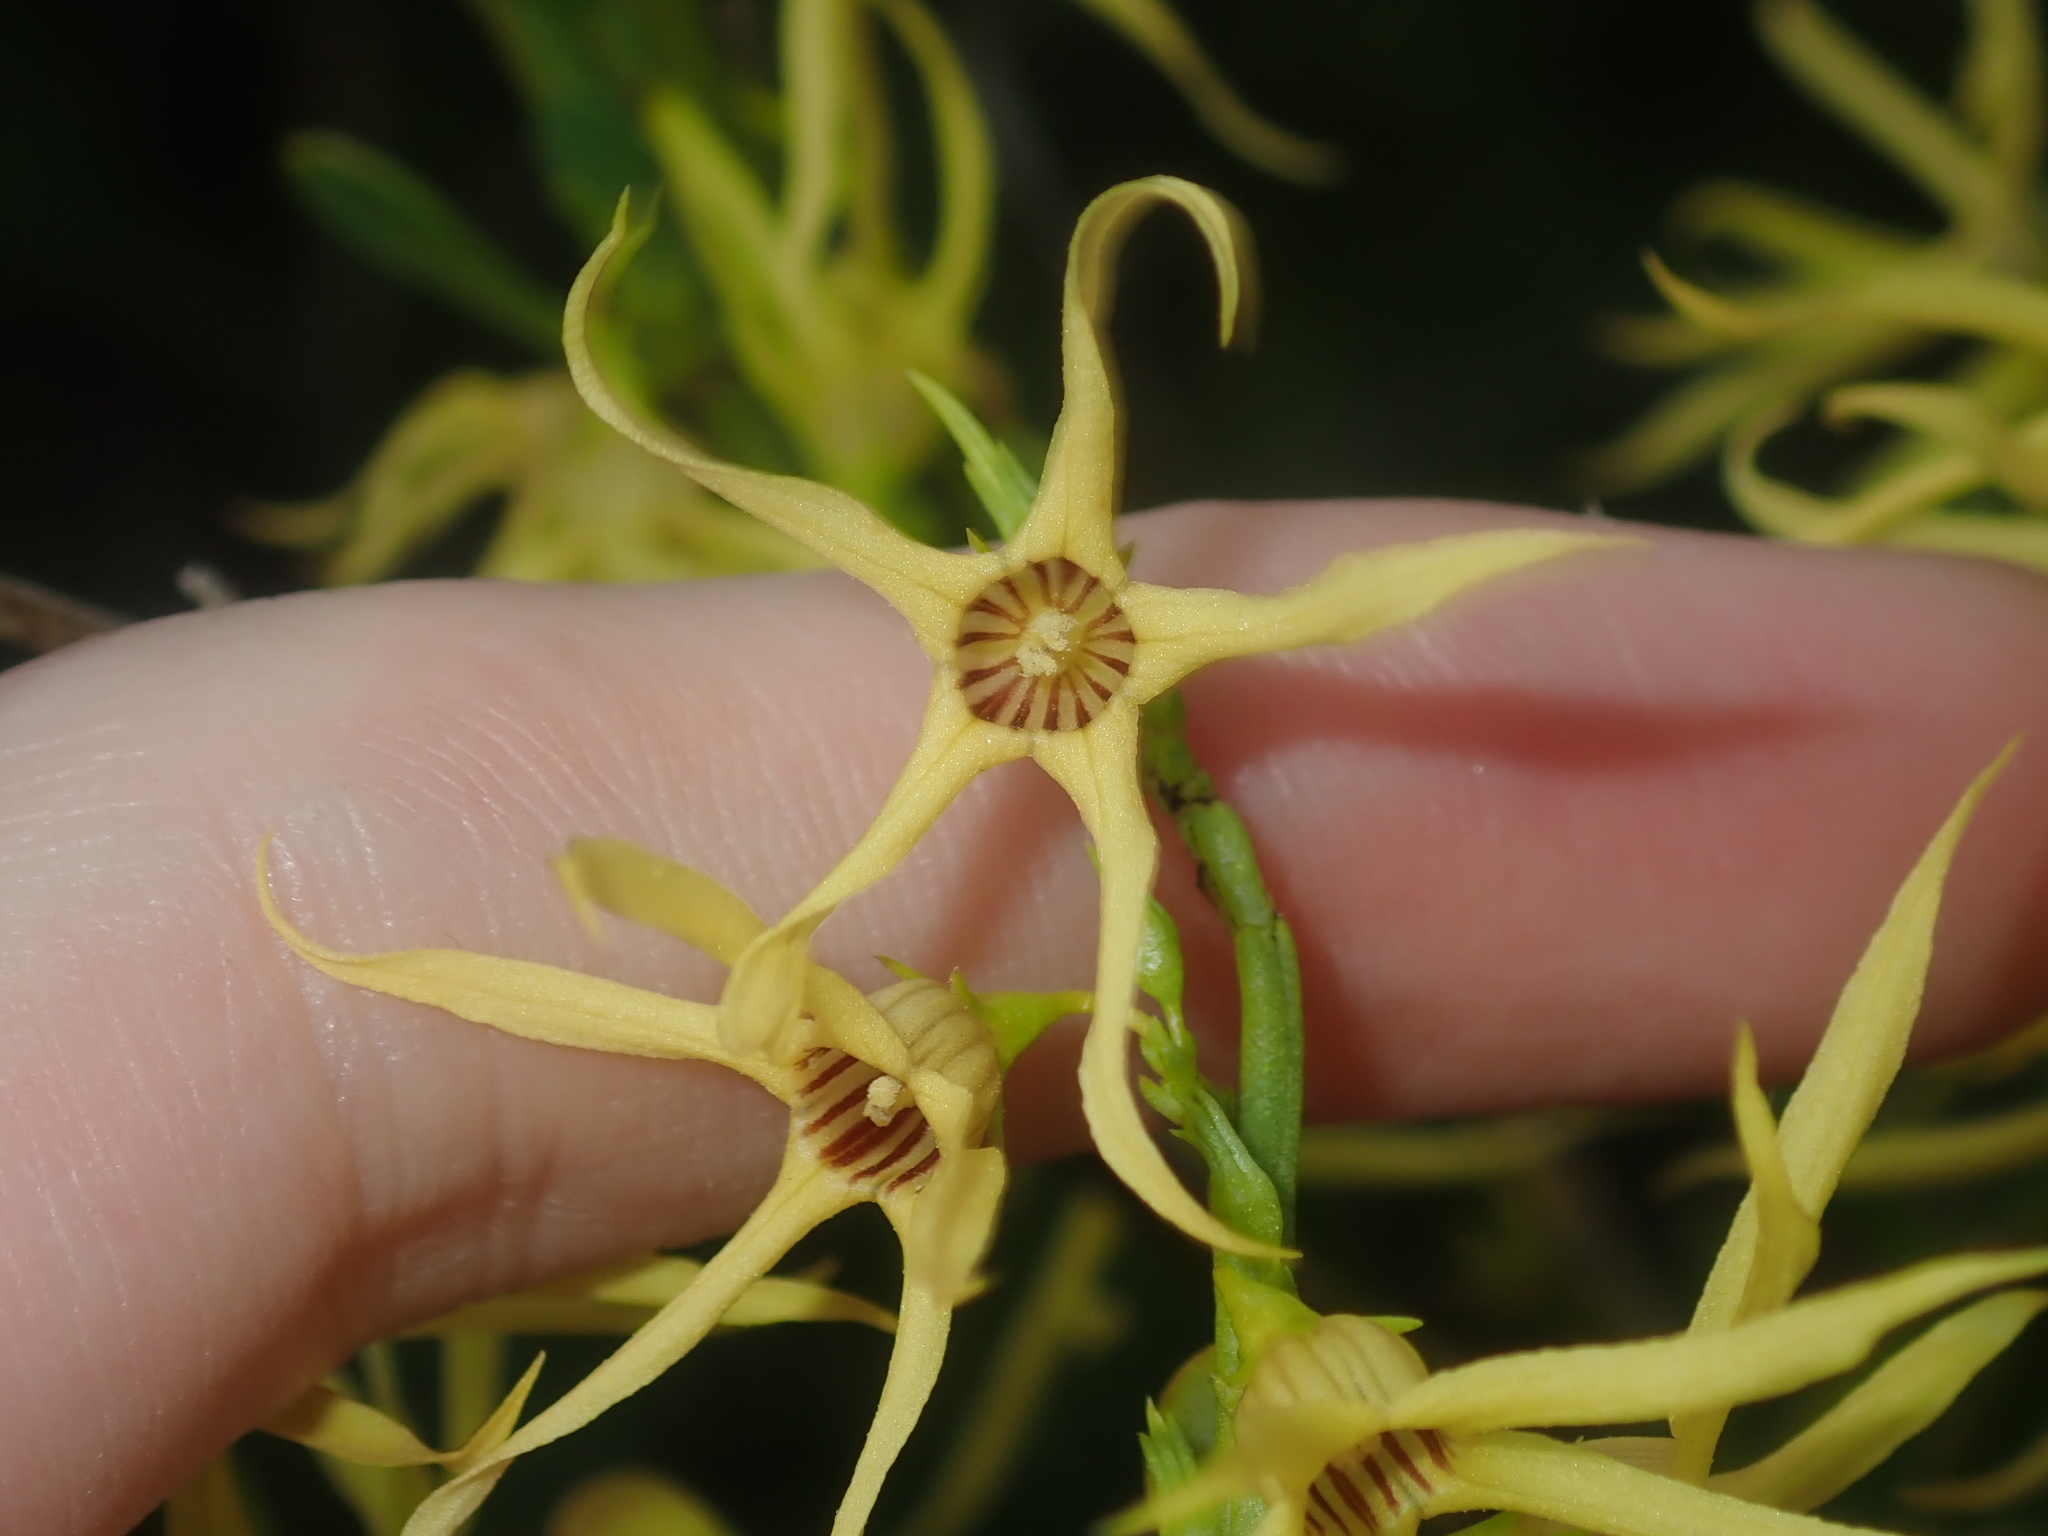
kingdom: Plantae
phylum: Tracheophyta
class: Magnoliopsida
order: Solanales
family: Solanaceae
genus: Anthocercis
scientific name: Anthocercis littorea
